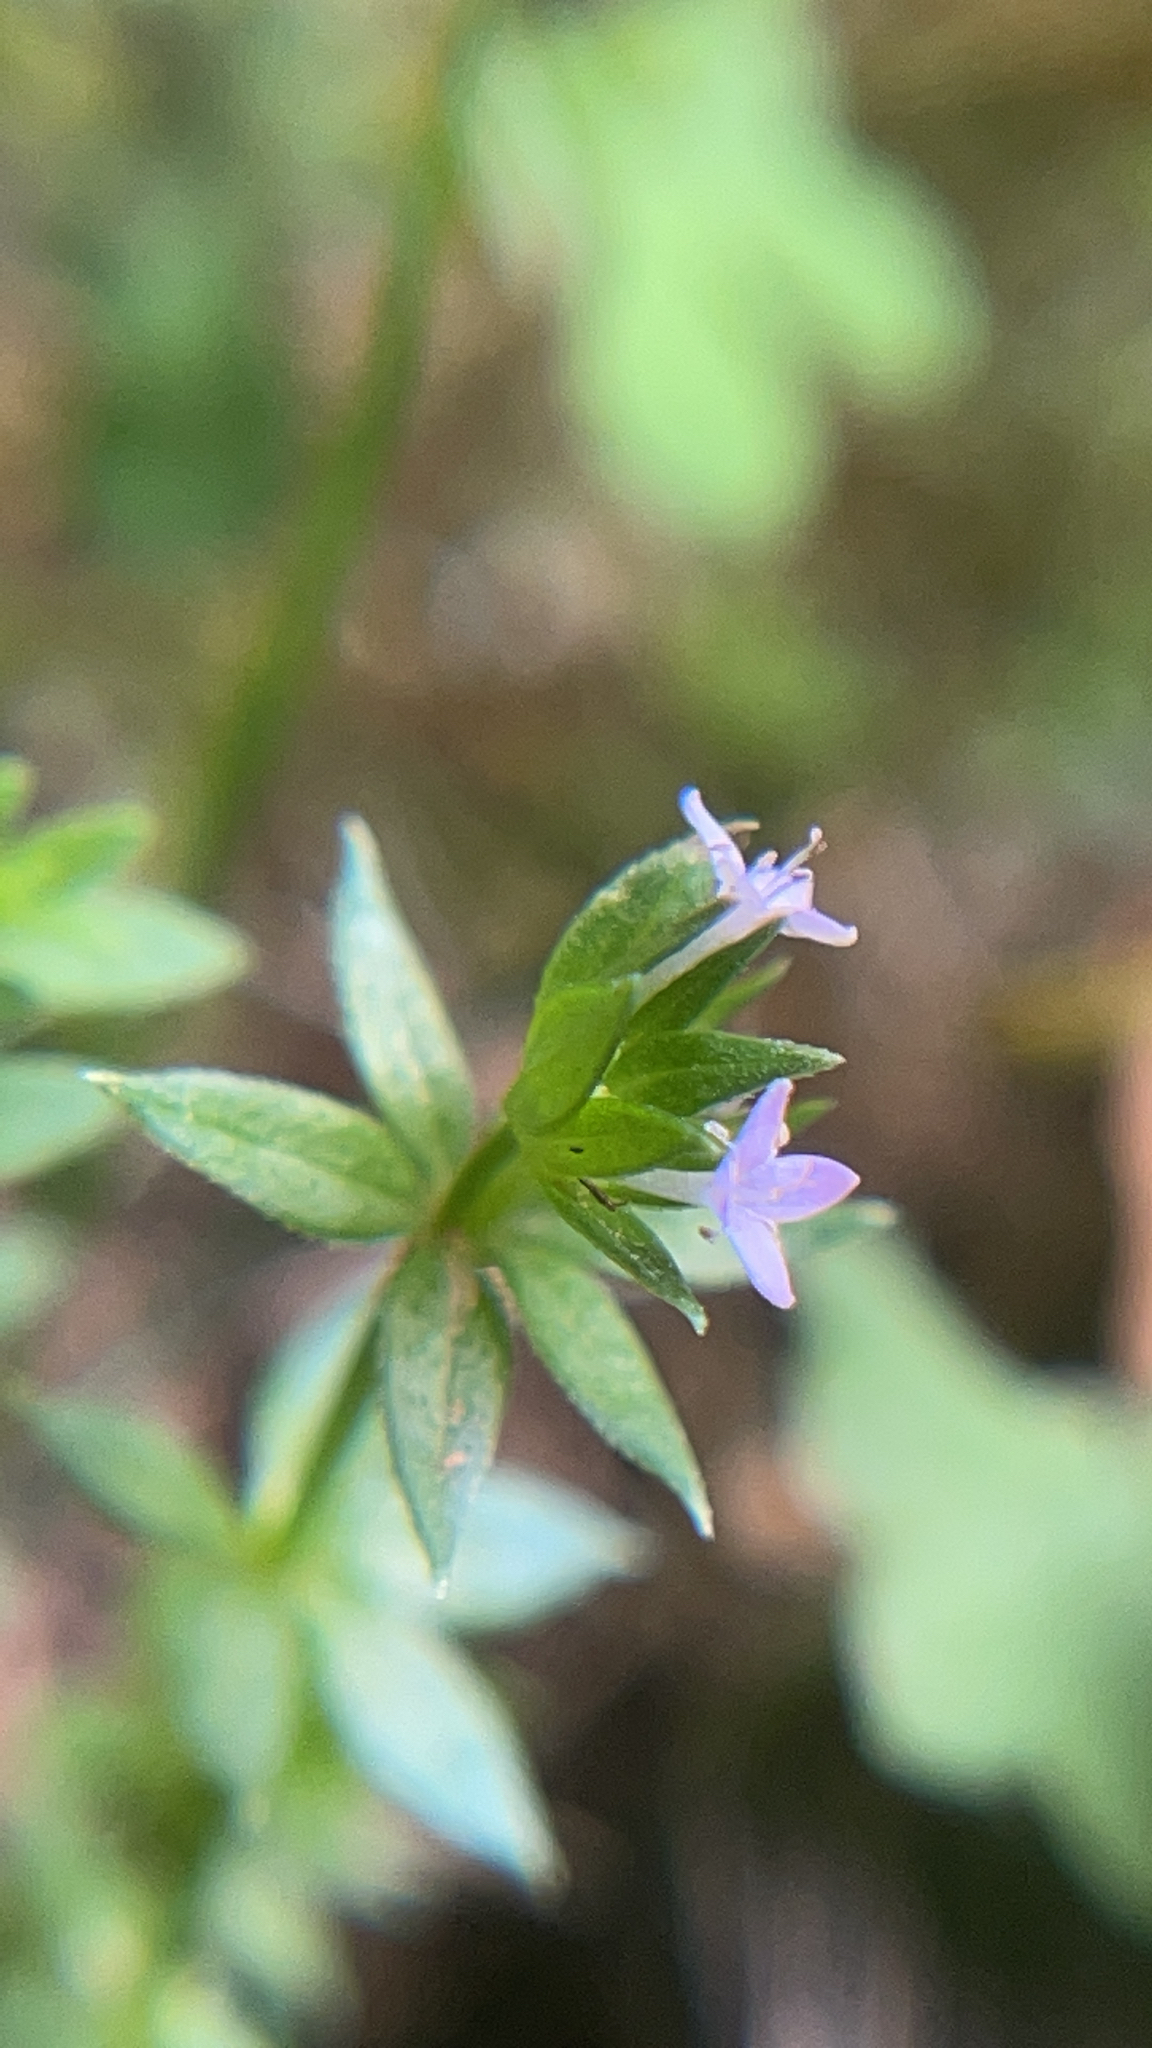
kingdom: Plantae
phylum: Tracheophyta
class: Magnoliopsida
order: Gentianales
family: Rubiaceae
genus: Sherardia
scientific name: Sherardia arvensis
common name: Field madder
